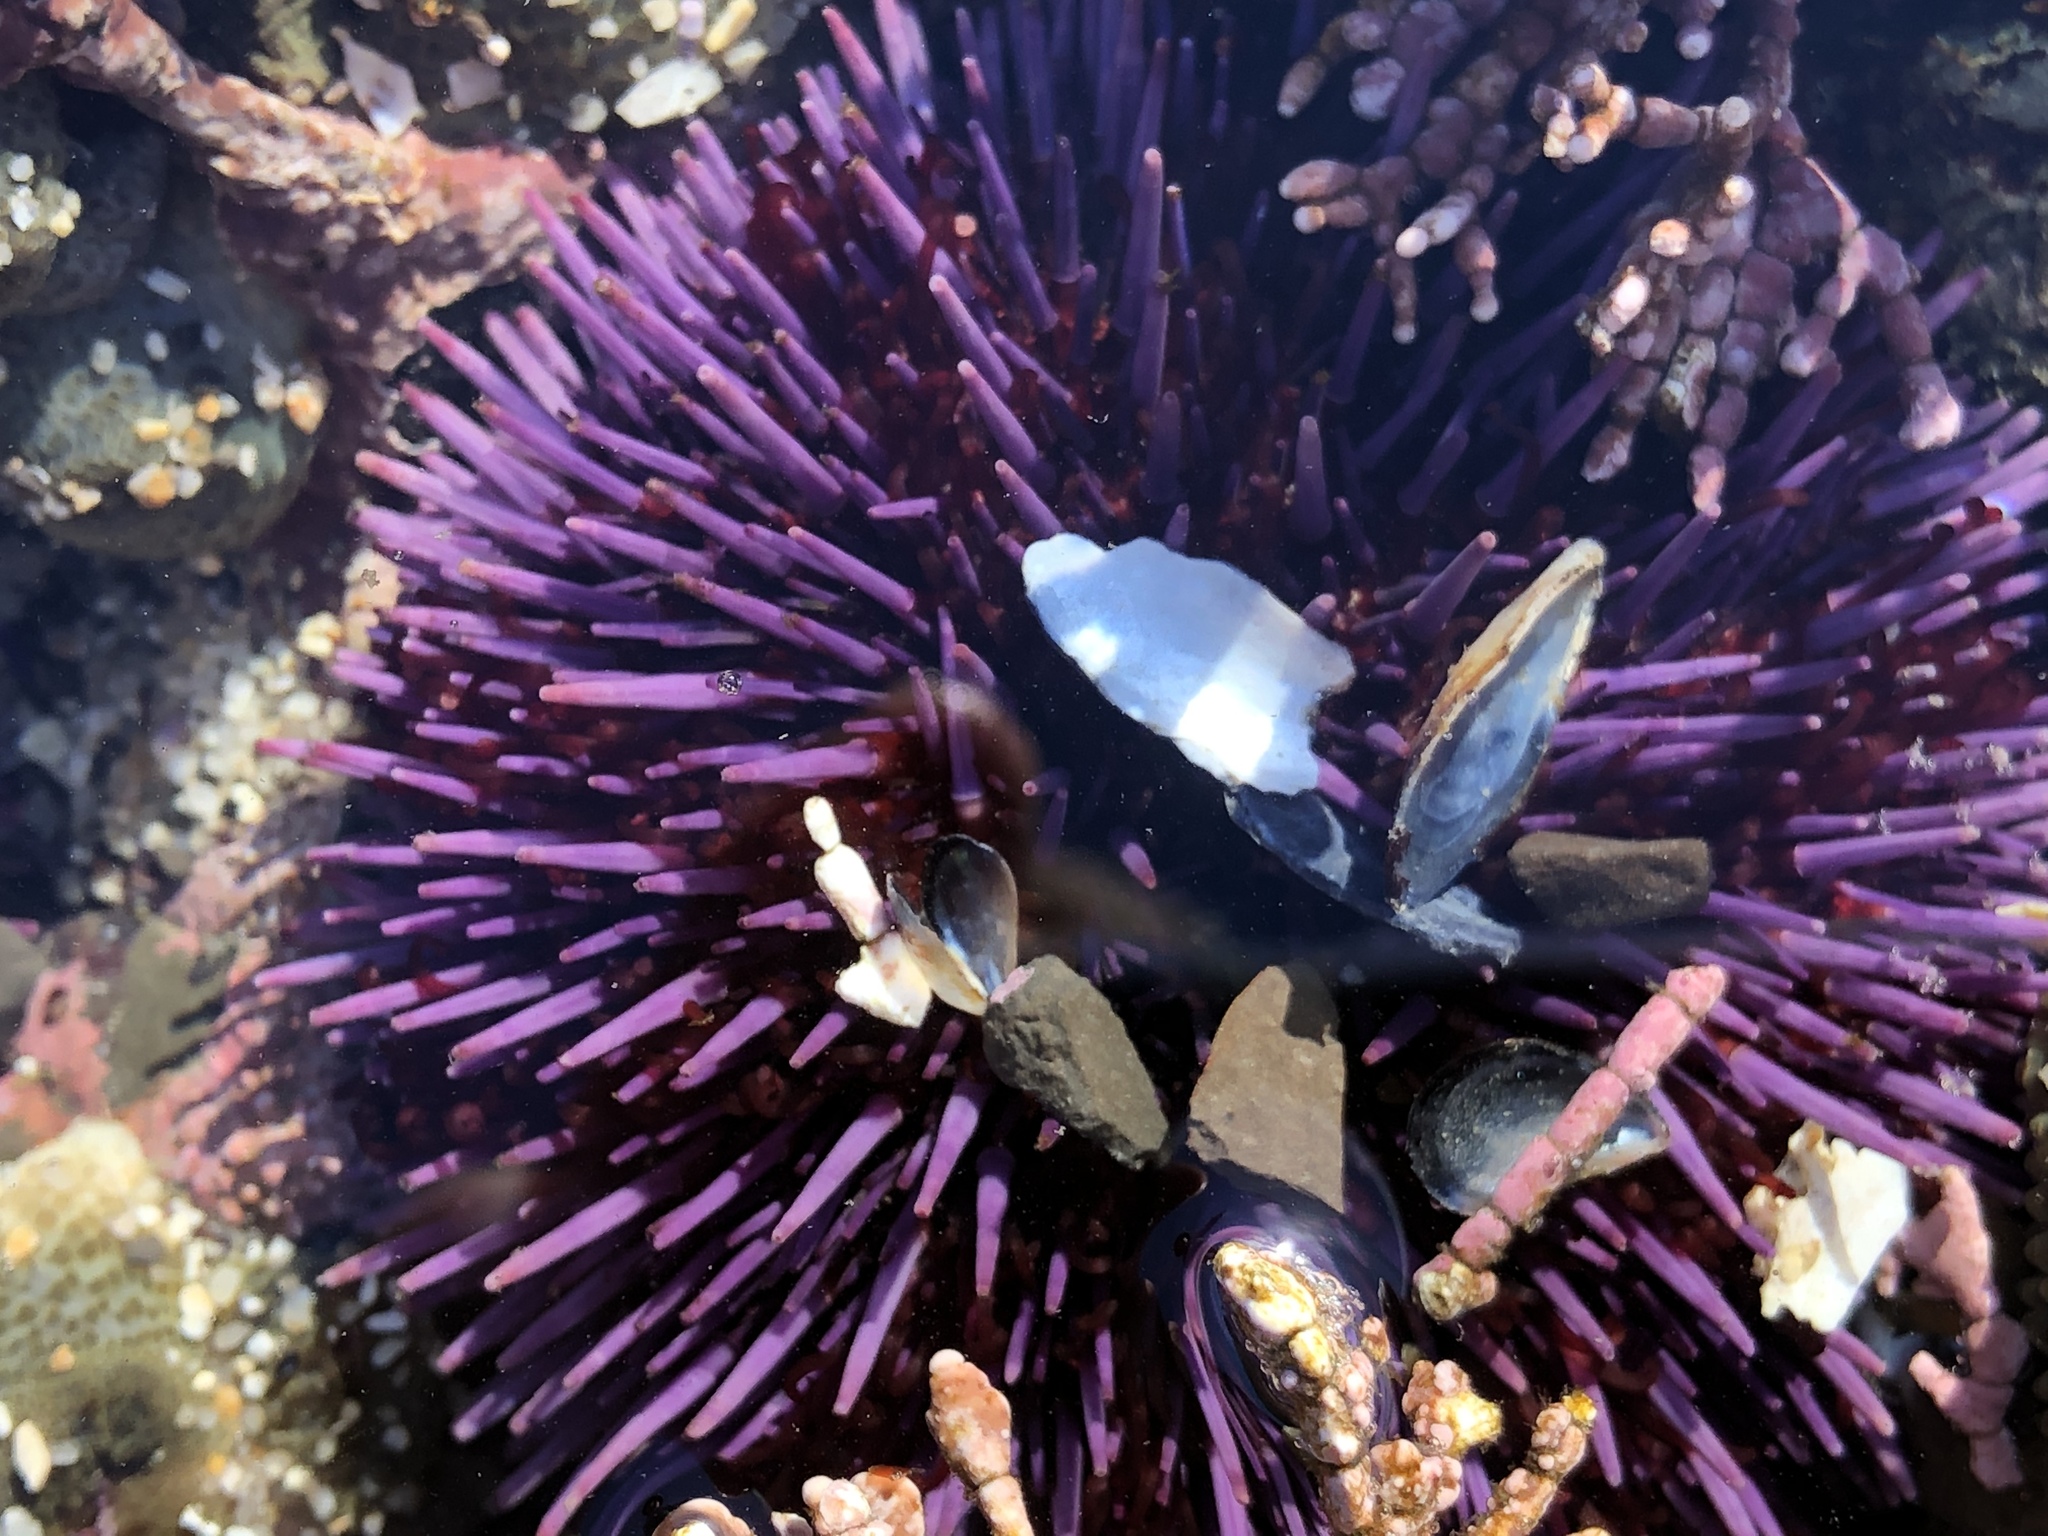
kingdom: Animalia
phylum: Echinodermata
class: Echinoidea
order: Camarodonta
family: Strongylocentrotidae
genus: Strongylocentrotus
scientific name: Strongylocentrotus purpuratus
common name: Purple sea urchin
